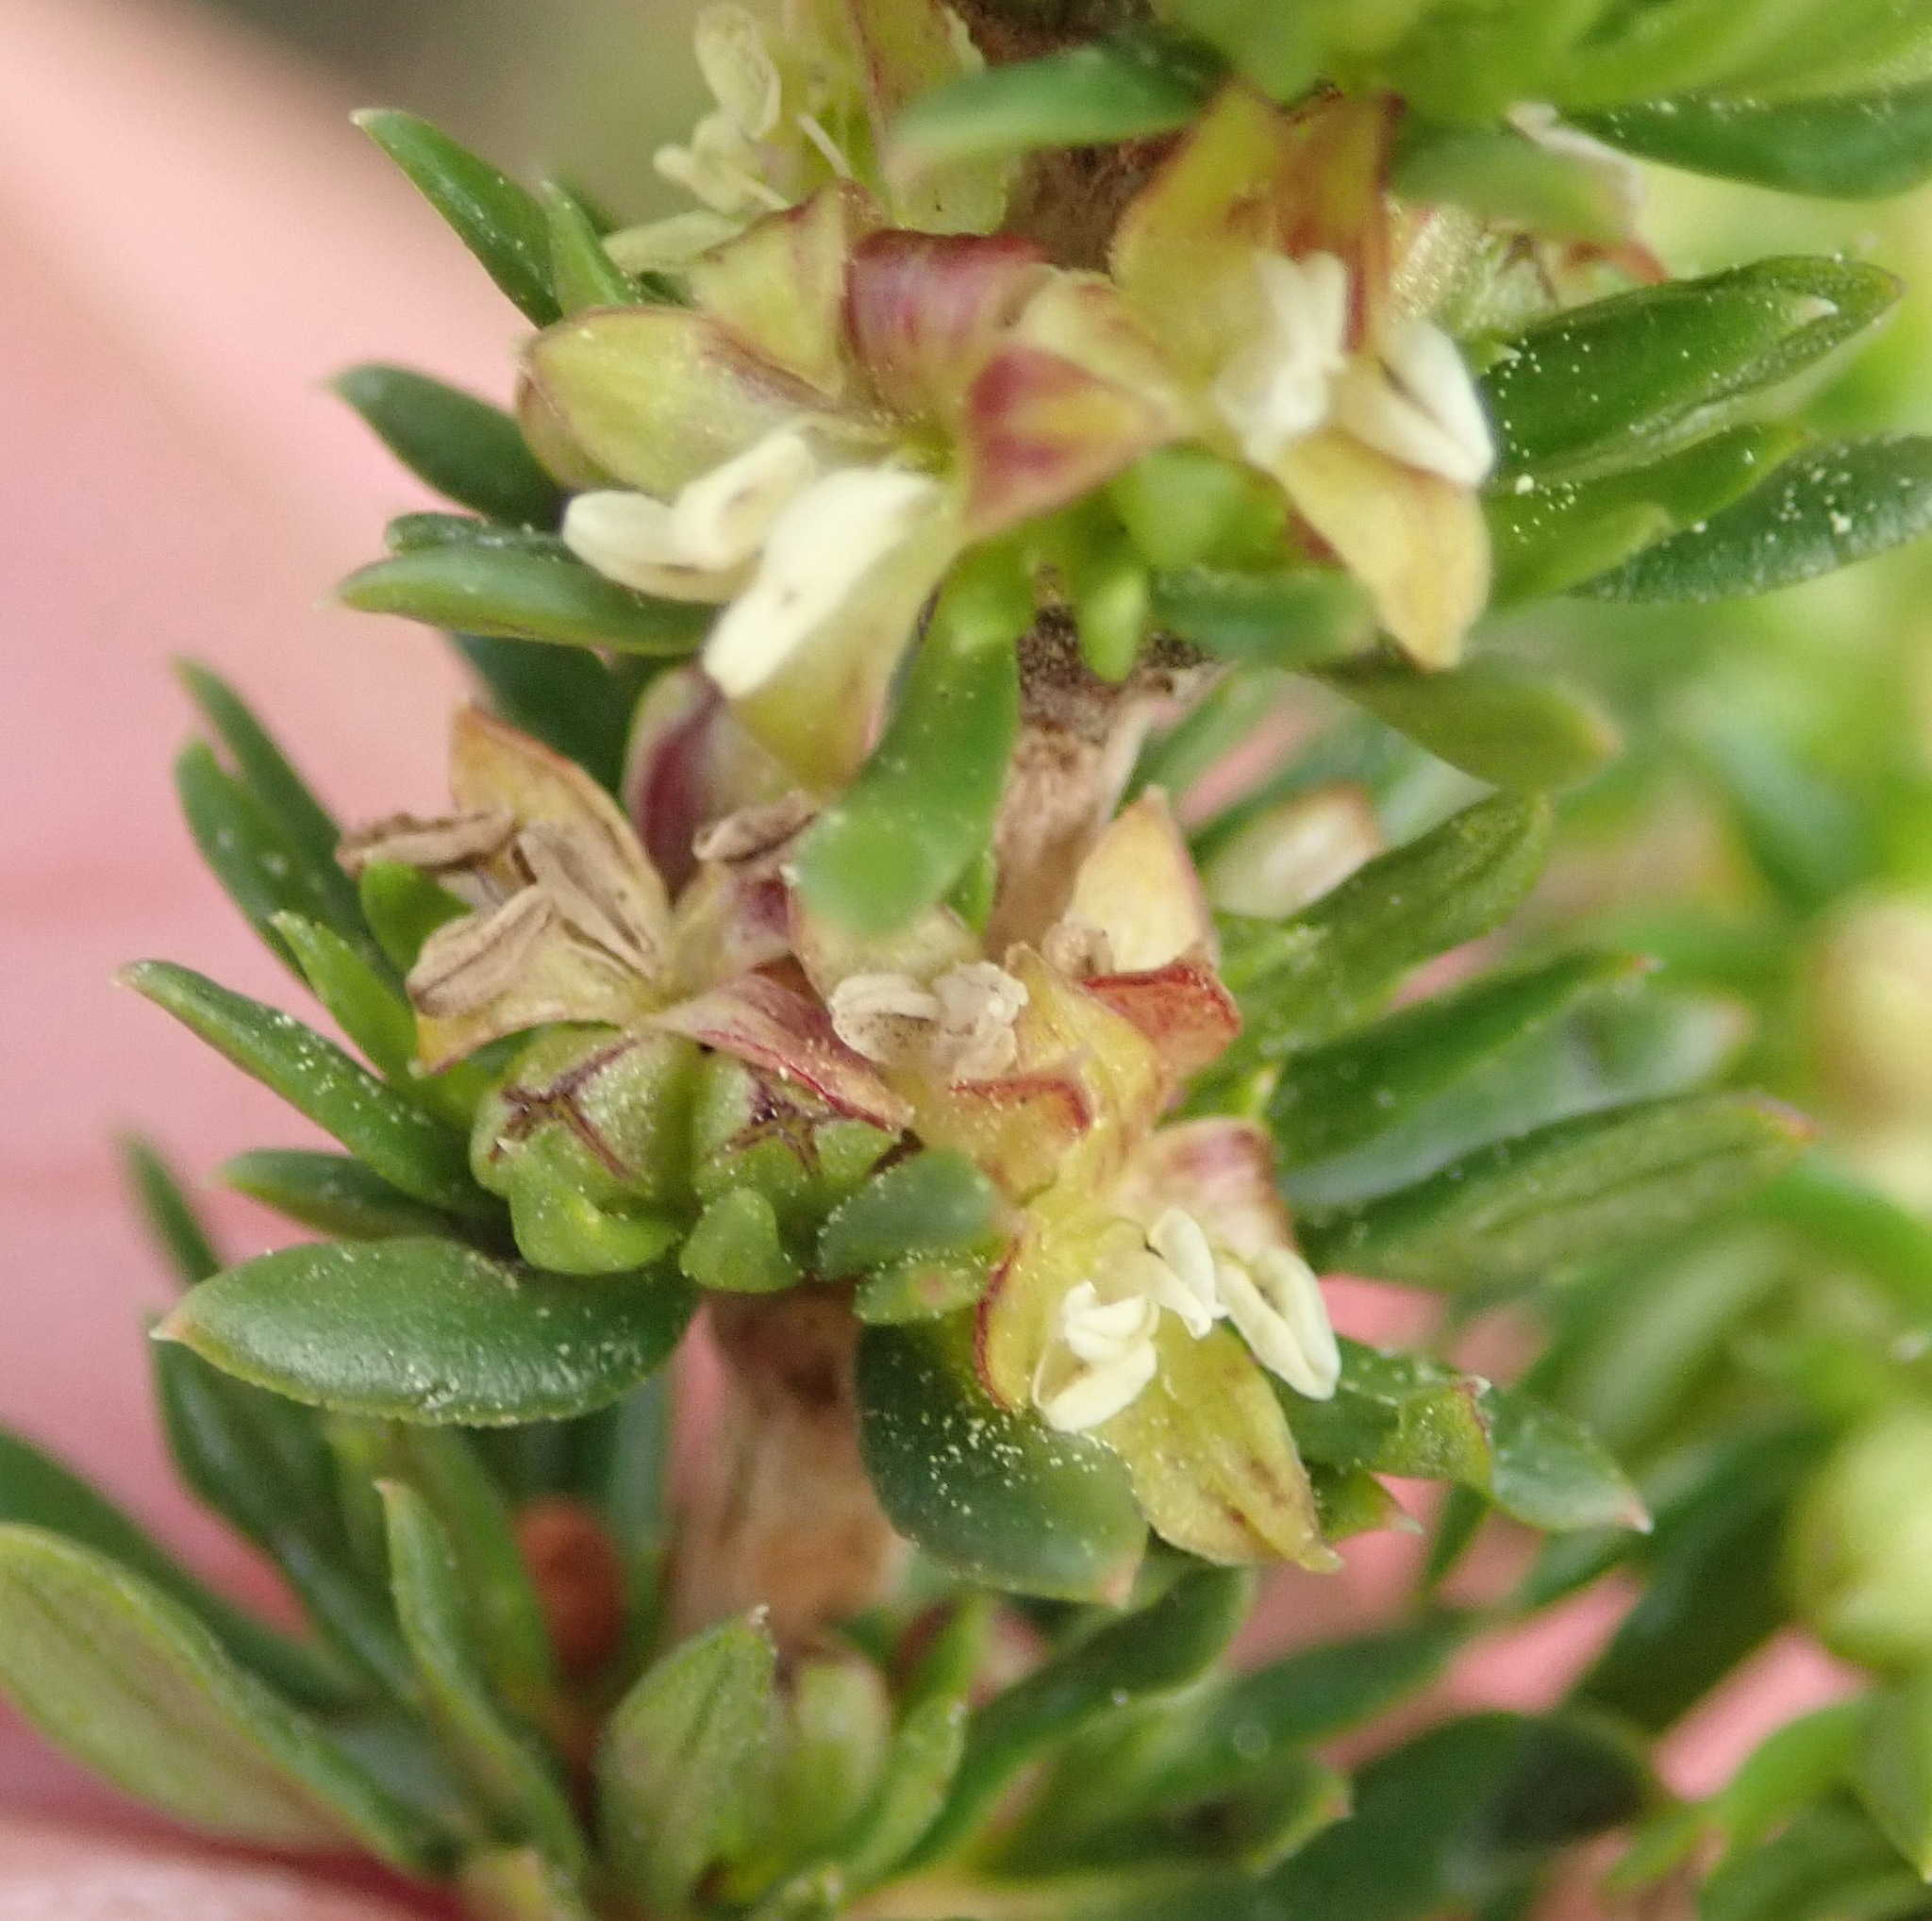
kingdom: Plantae
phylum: Tracheophyta
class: Magnoliopsida
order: Gentianales
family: Rubiaceae
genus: Anthospermum
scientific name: Anthospermum aethiopicum
